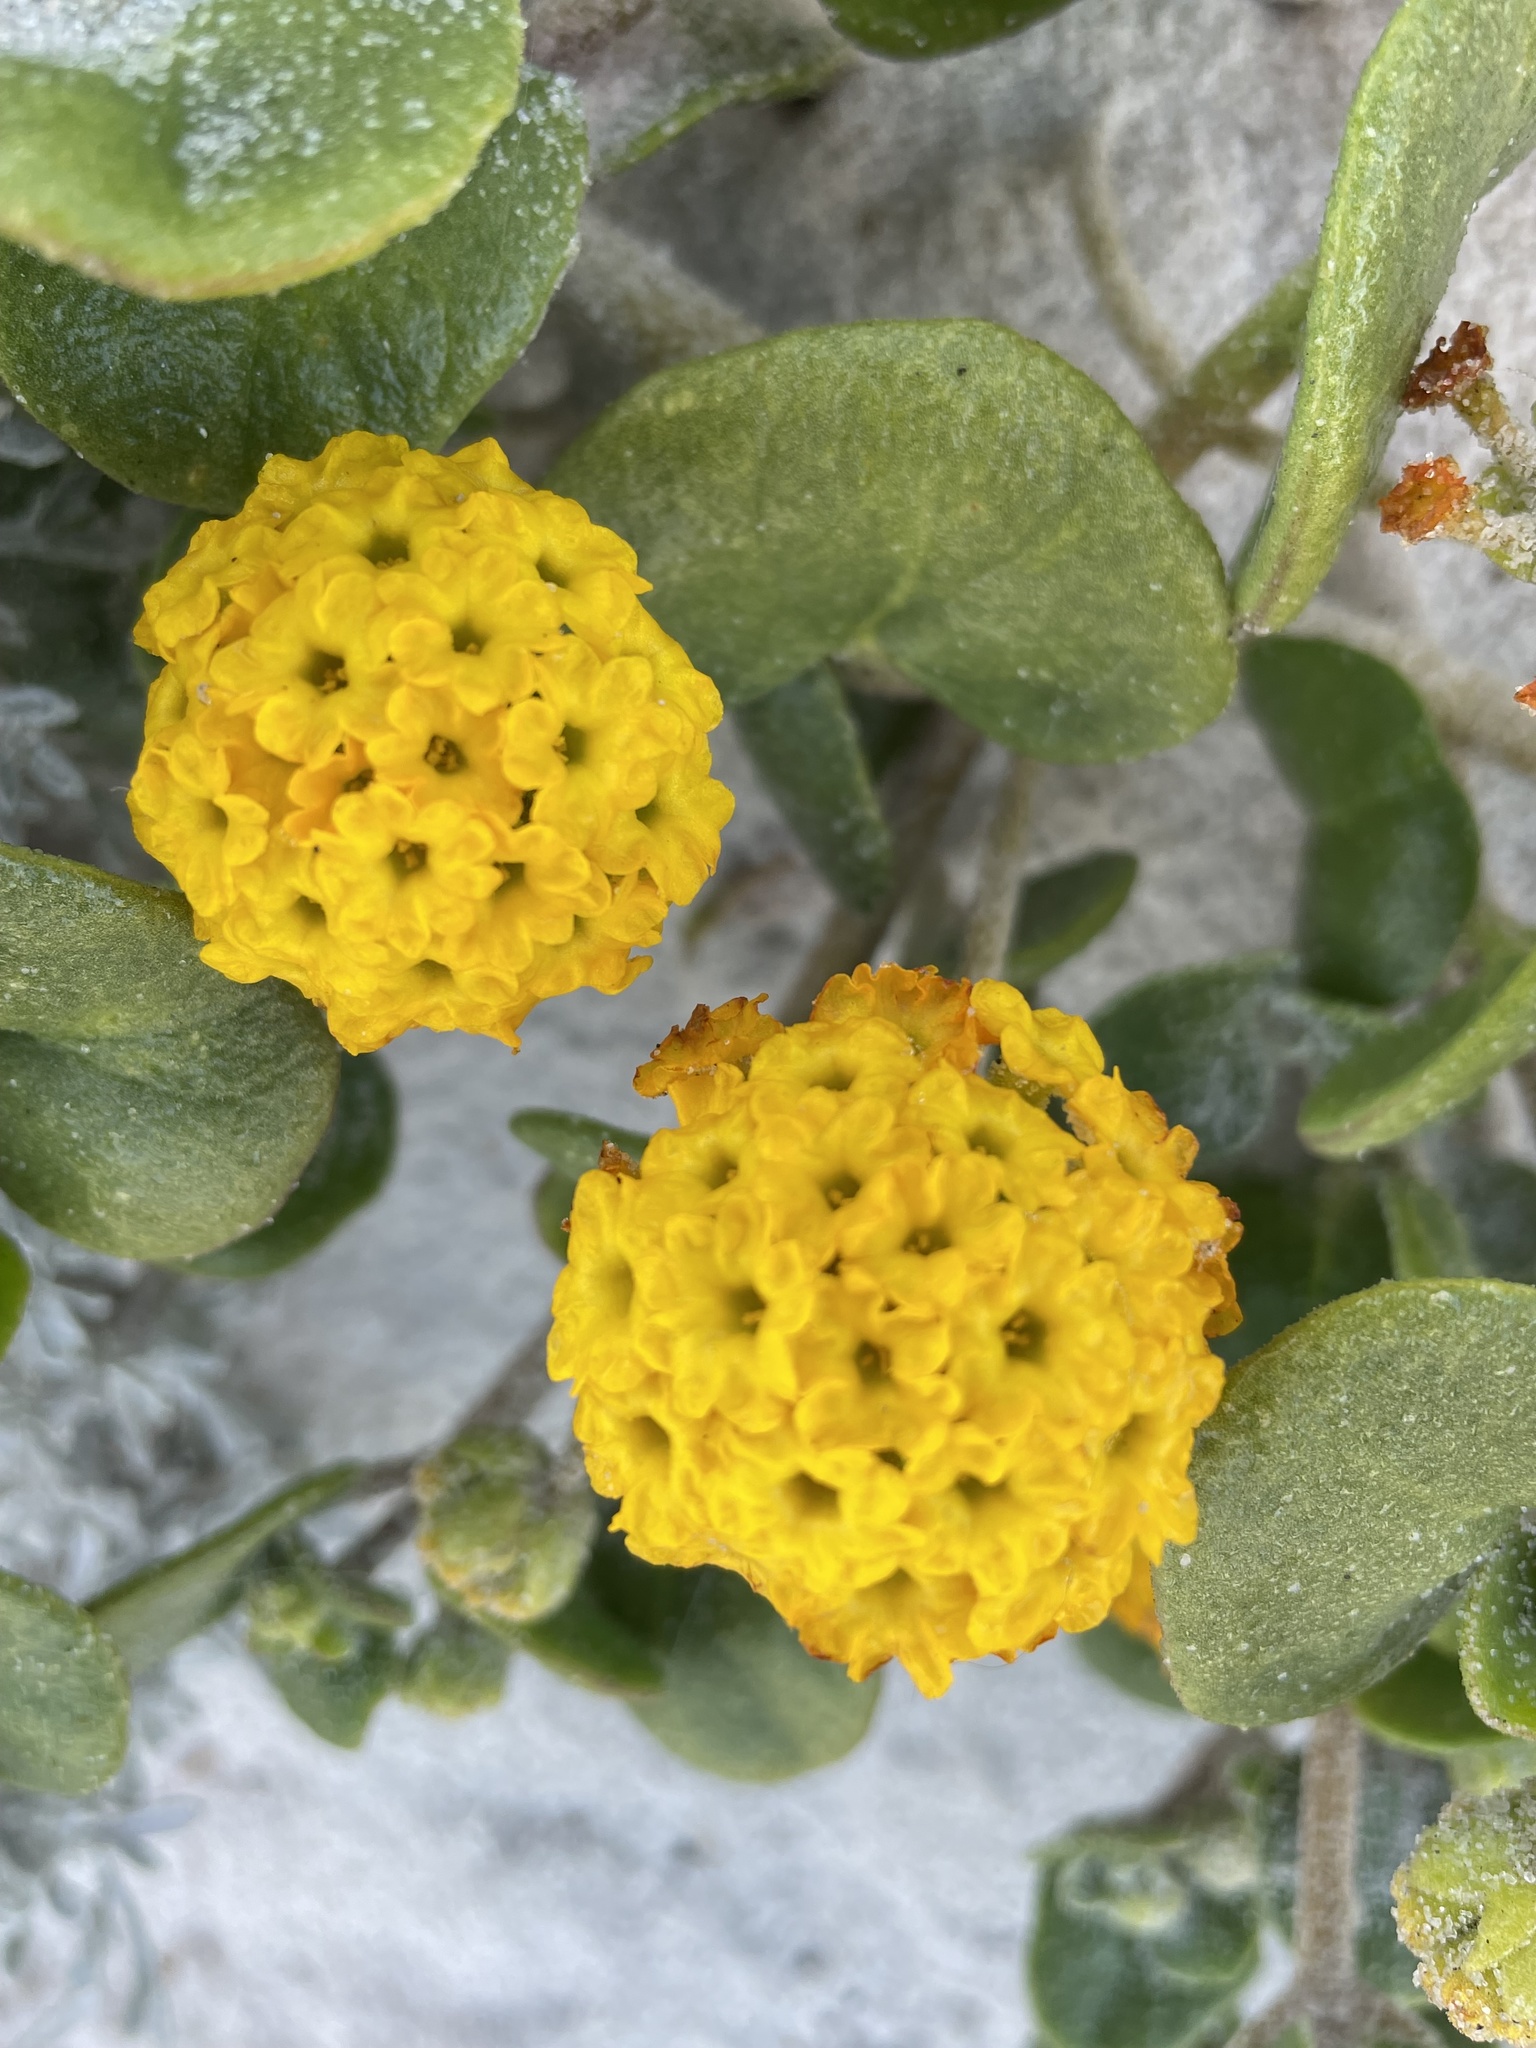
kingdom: Plantae
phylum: Tracheophyta
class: Magnoliopsida
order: Caryophyllales
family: Nyctaginaceae
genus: Abronia
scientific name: Abronia latifolia
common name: Yellow sand-verbena
